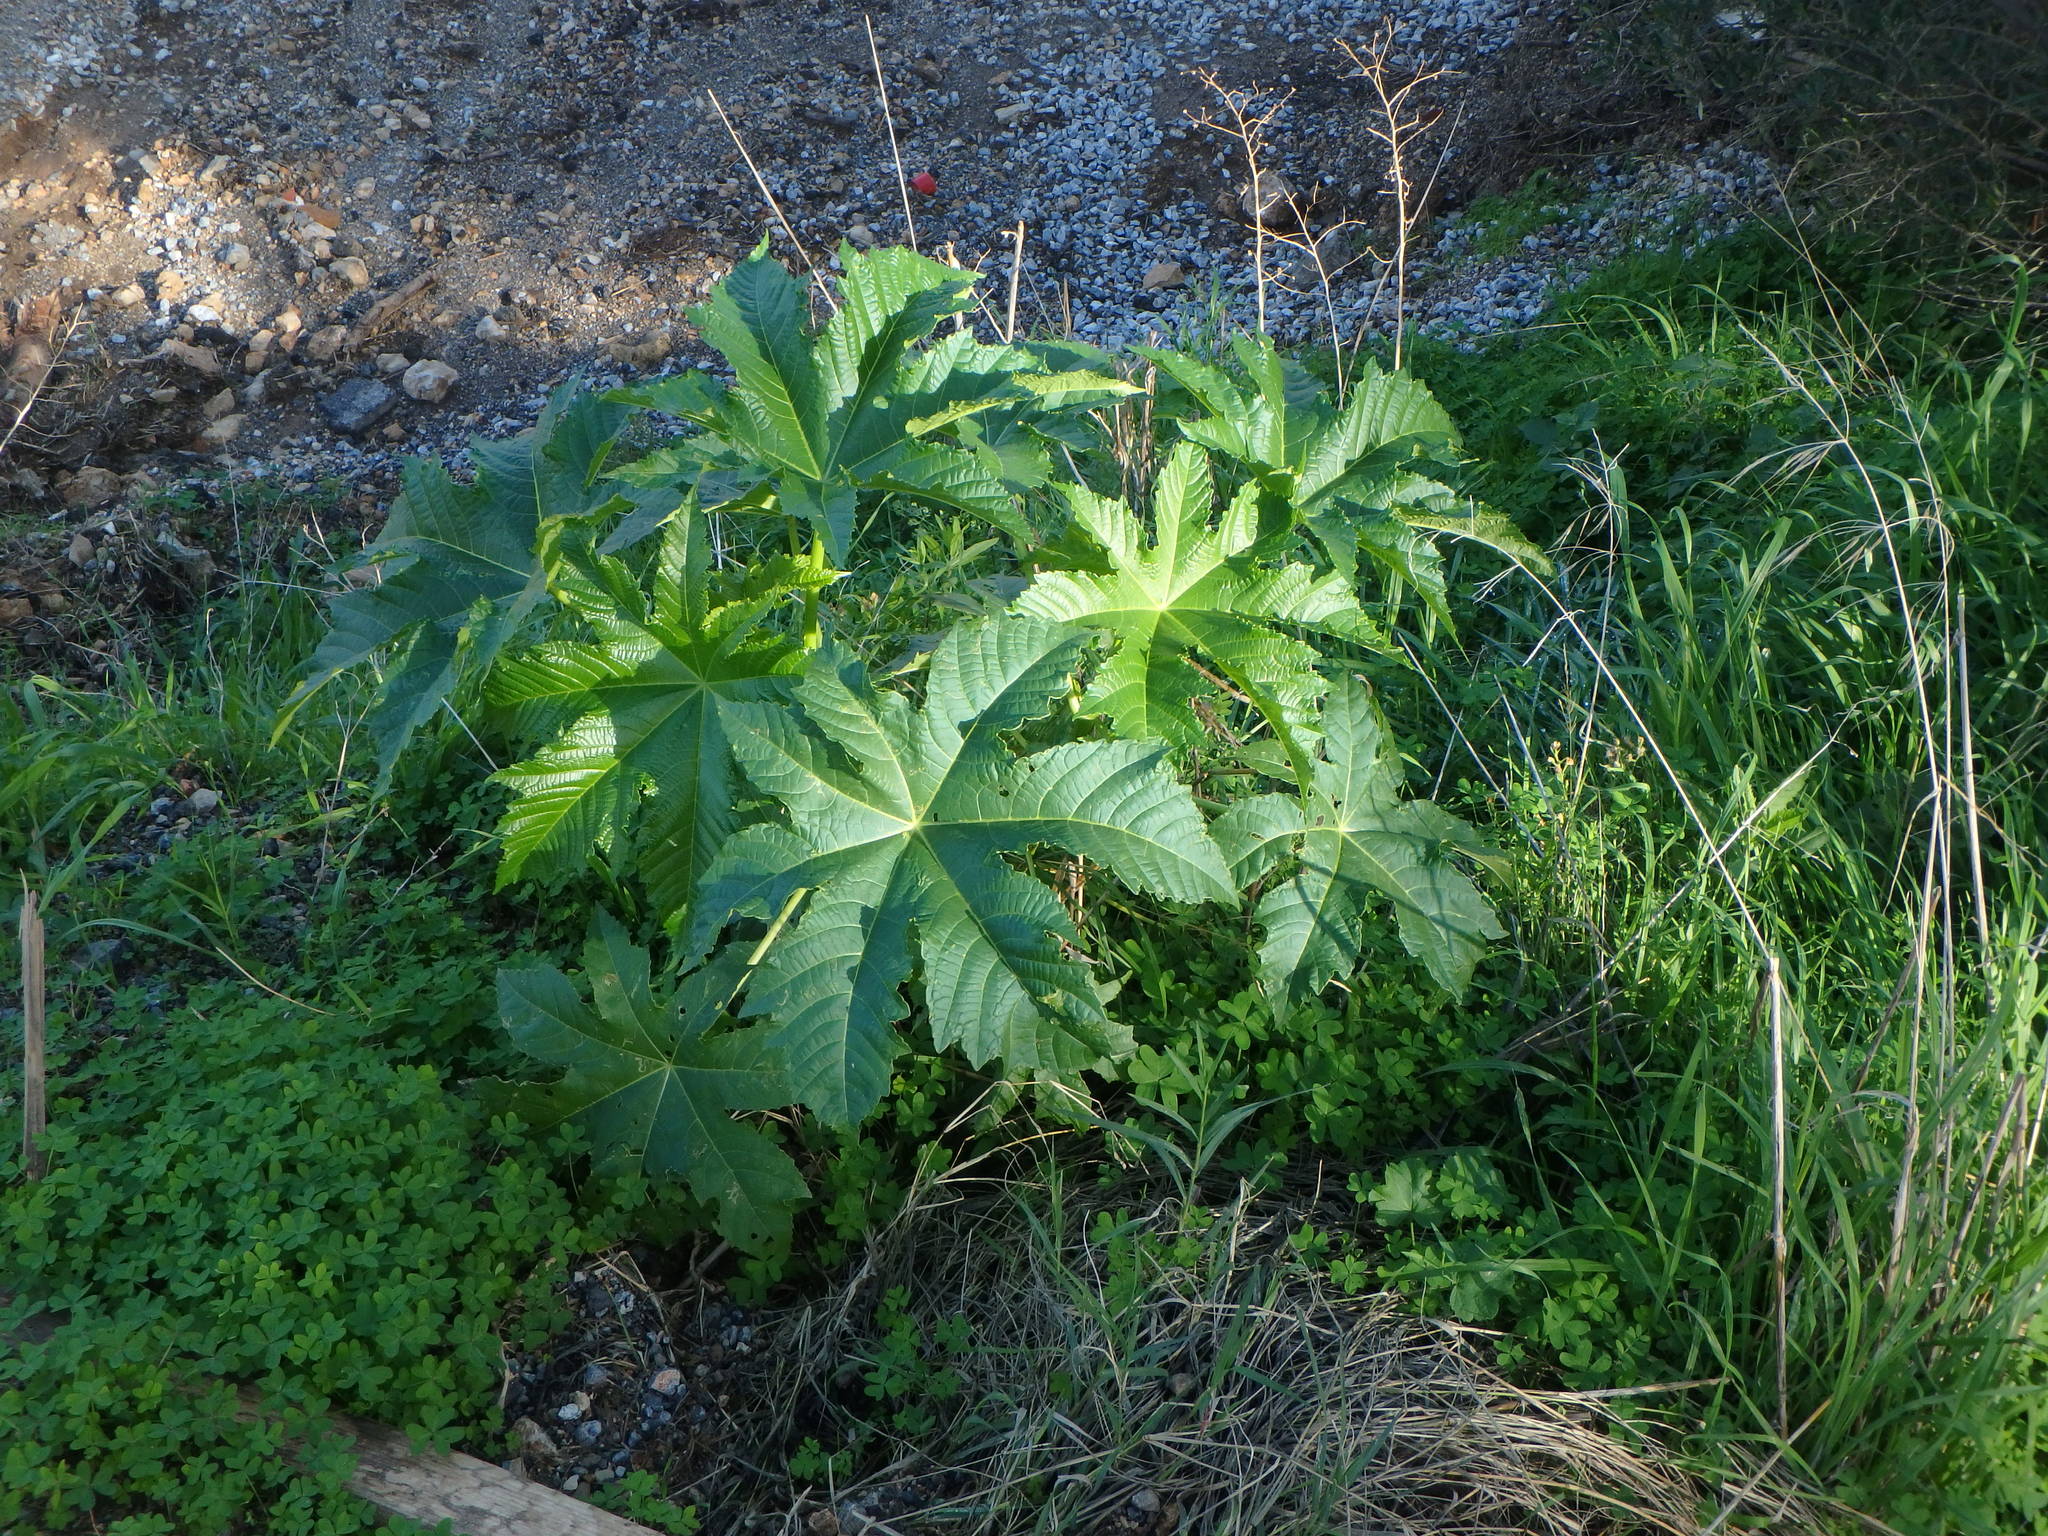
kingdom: Plantae
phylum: Tracheophyta
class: Magnoliopsida
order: Malpighiales
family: Euphorbiaceae
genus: Ricinus
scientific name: Ricinus communis
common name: Castor-oil-plant
